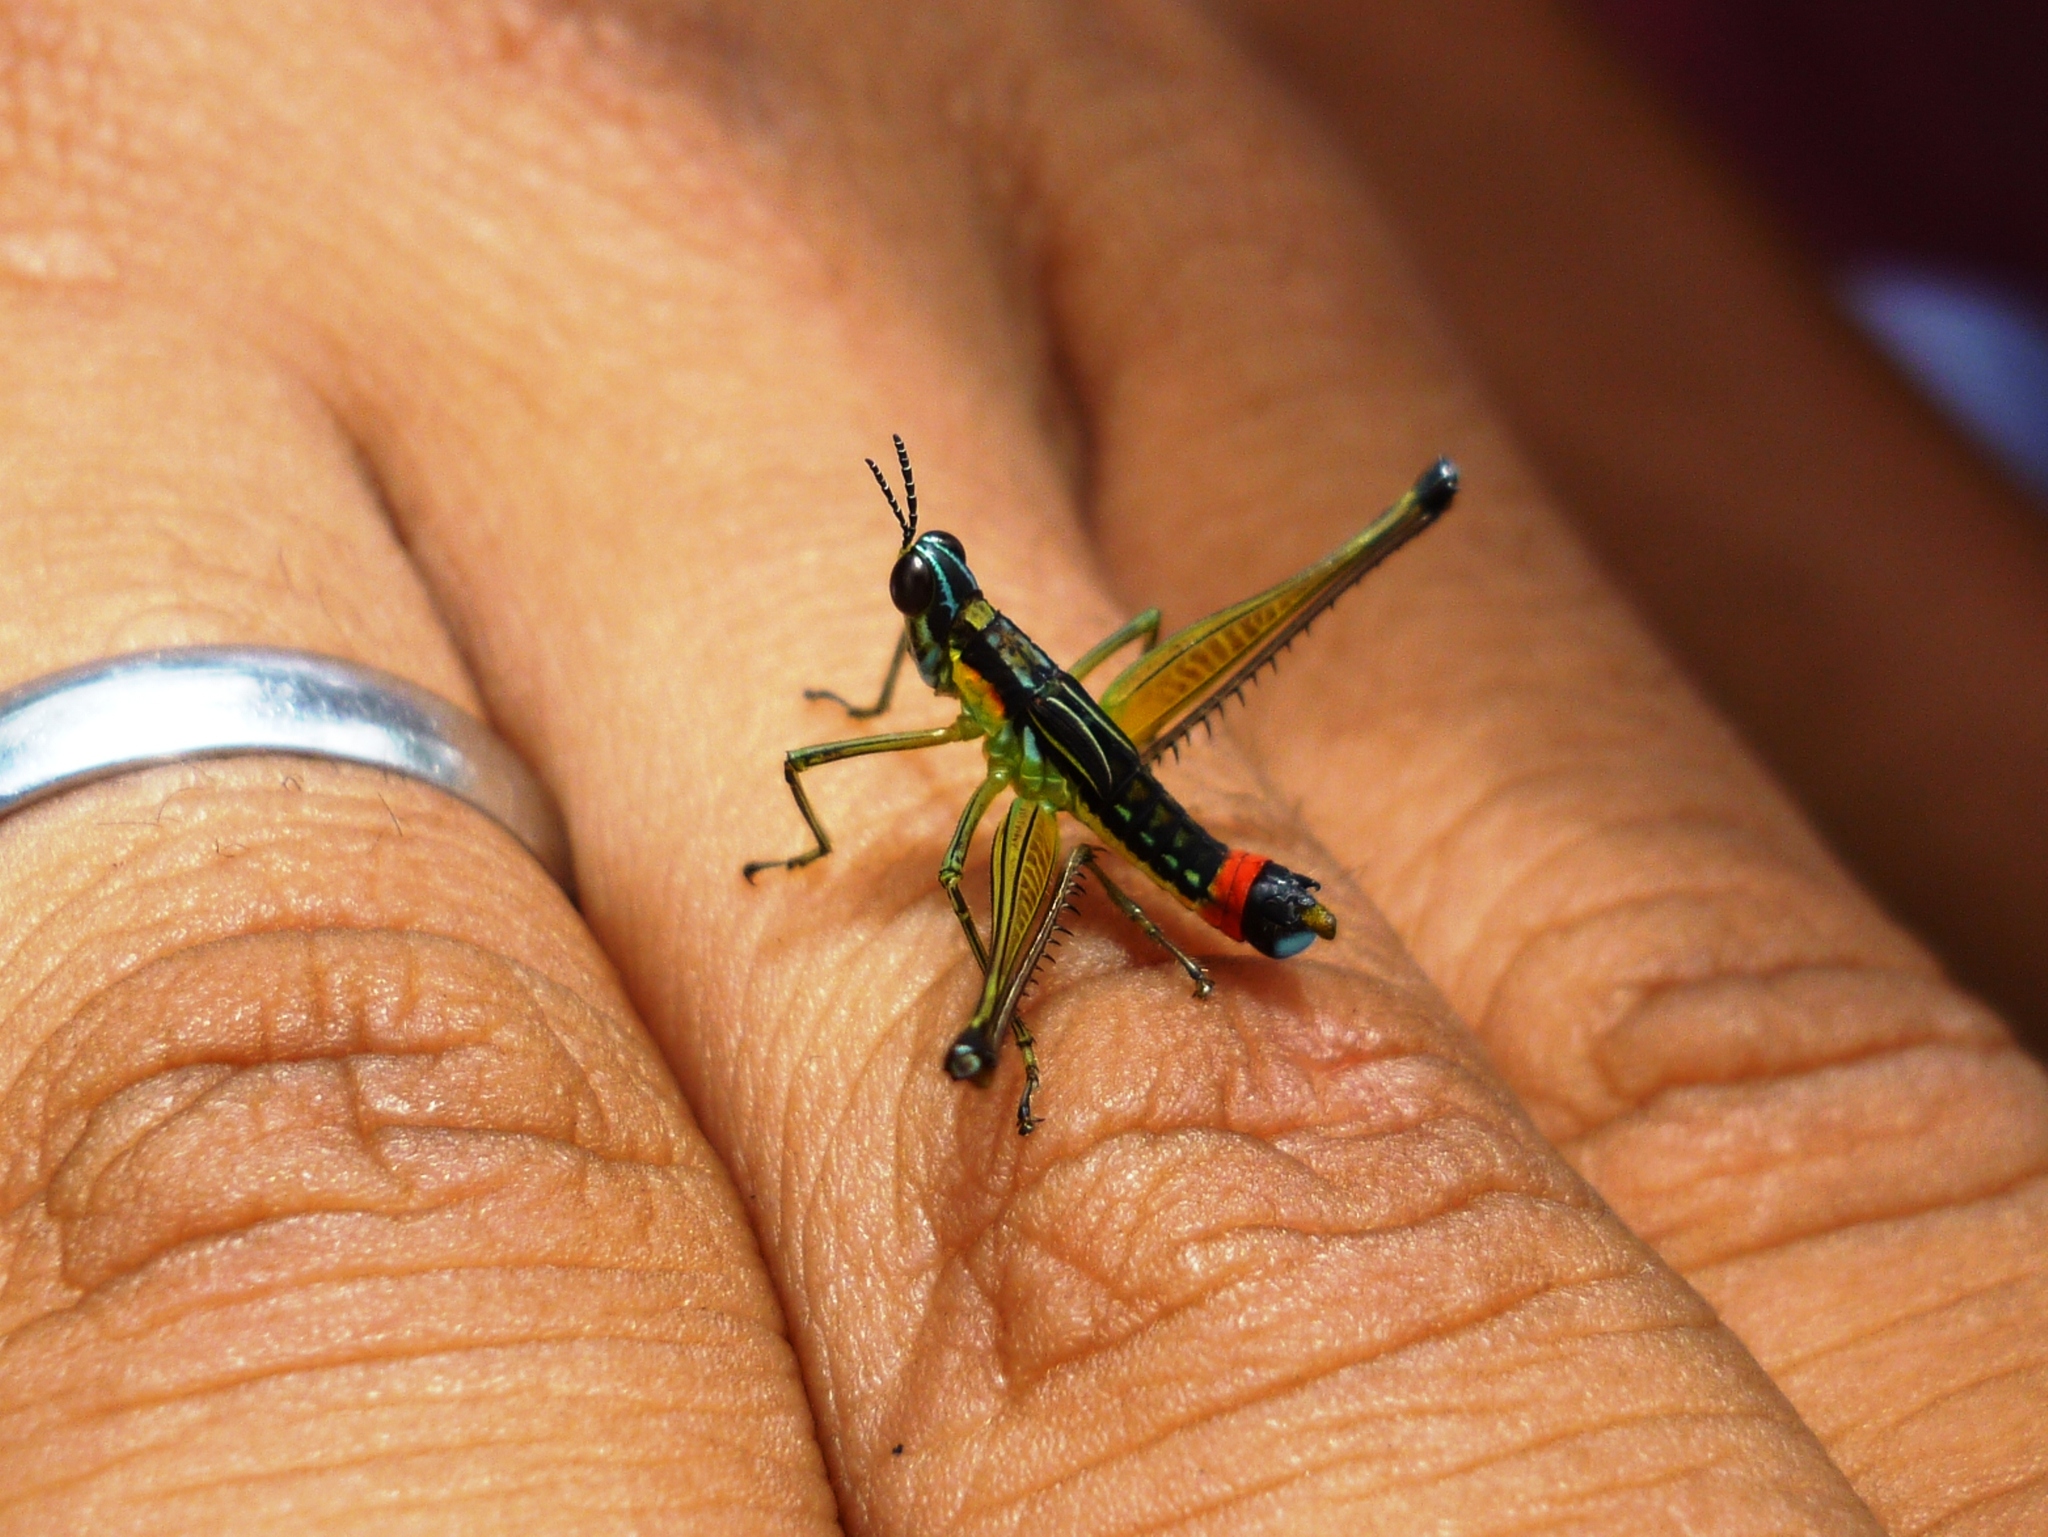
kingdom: Animalia
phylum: Arthropoda
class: Insecta
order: Orthoptera
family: Eumastacidae
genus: Paramastax
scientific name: Paramastax duquei
